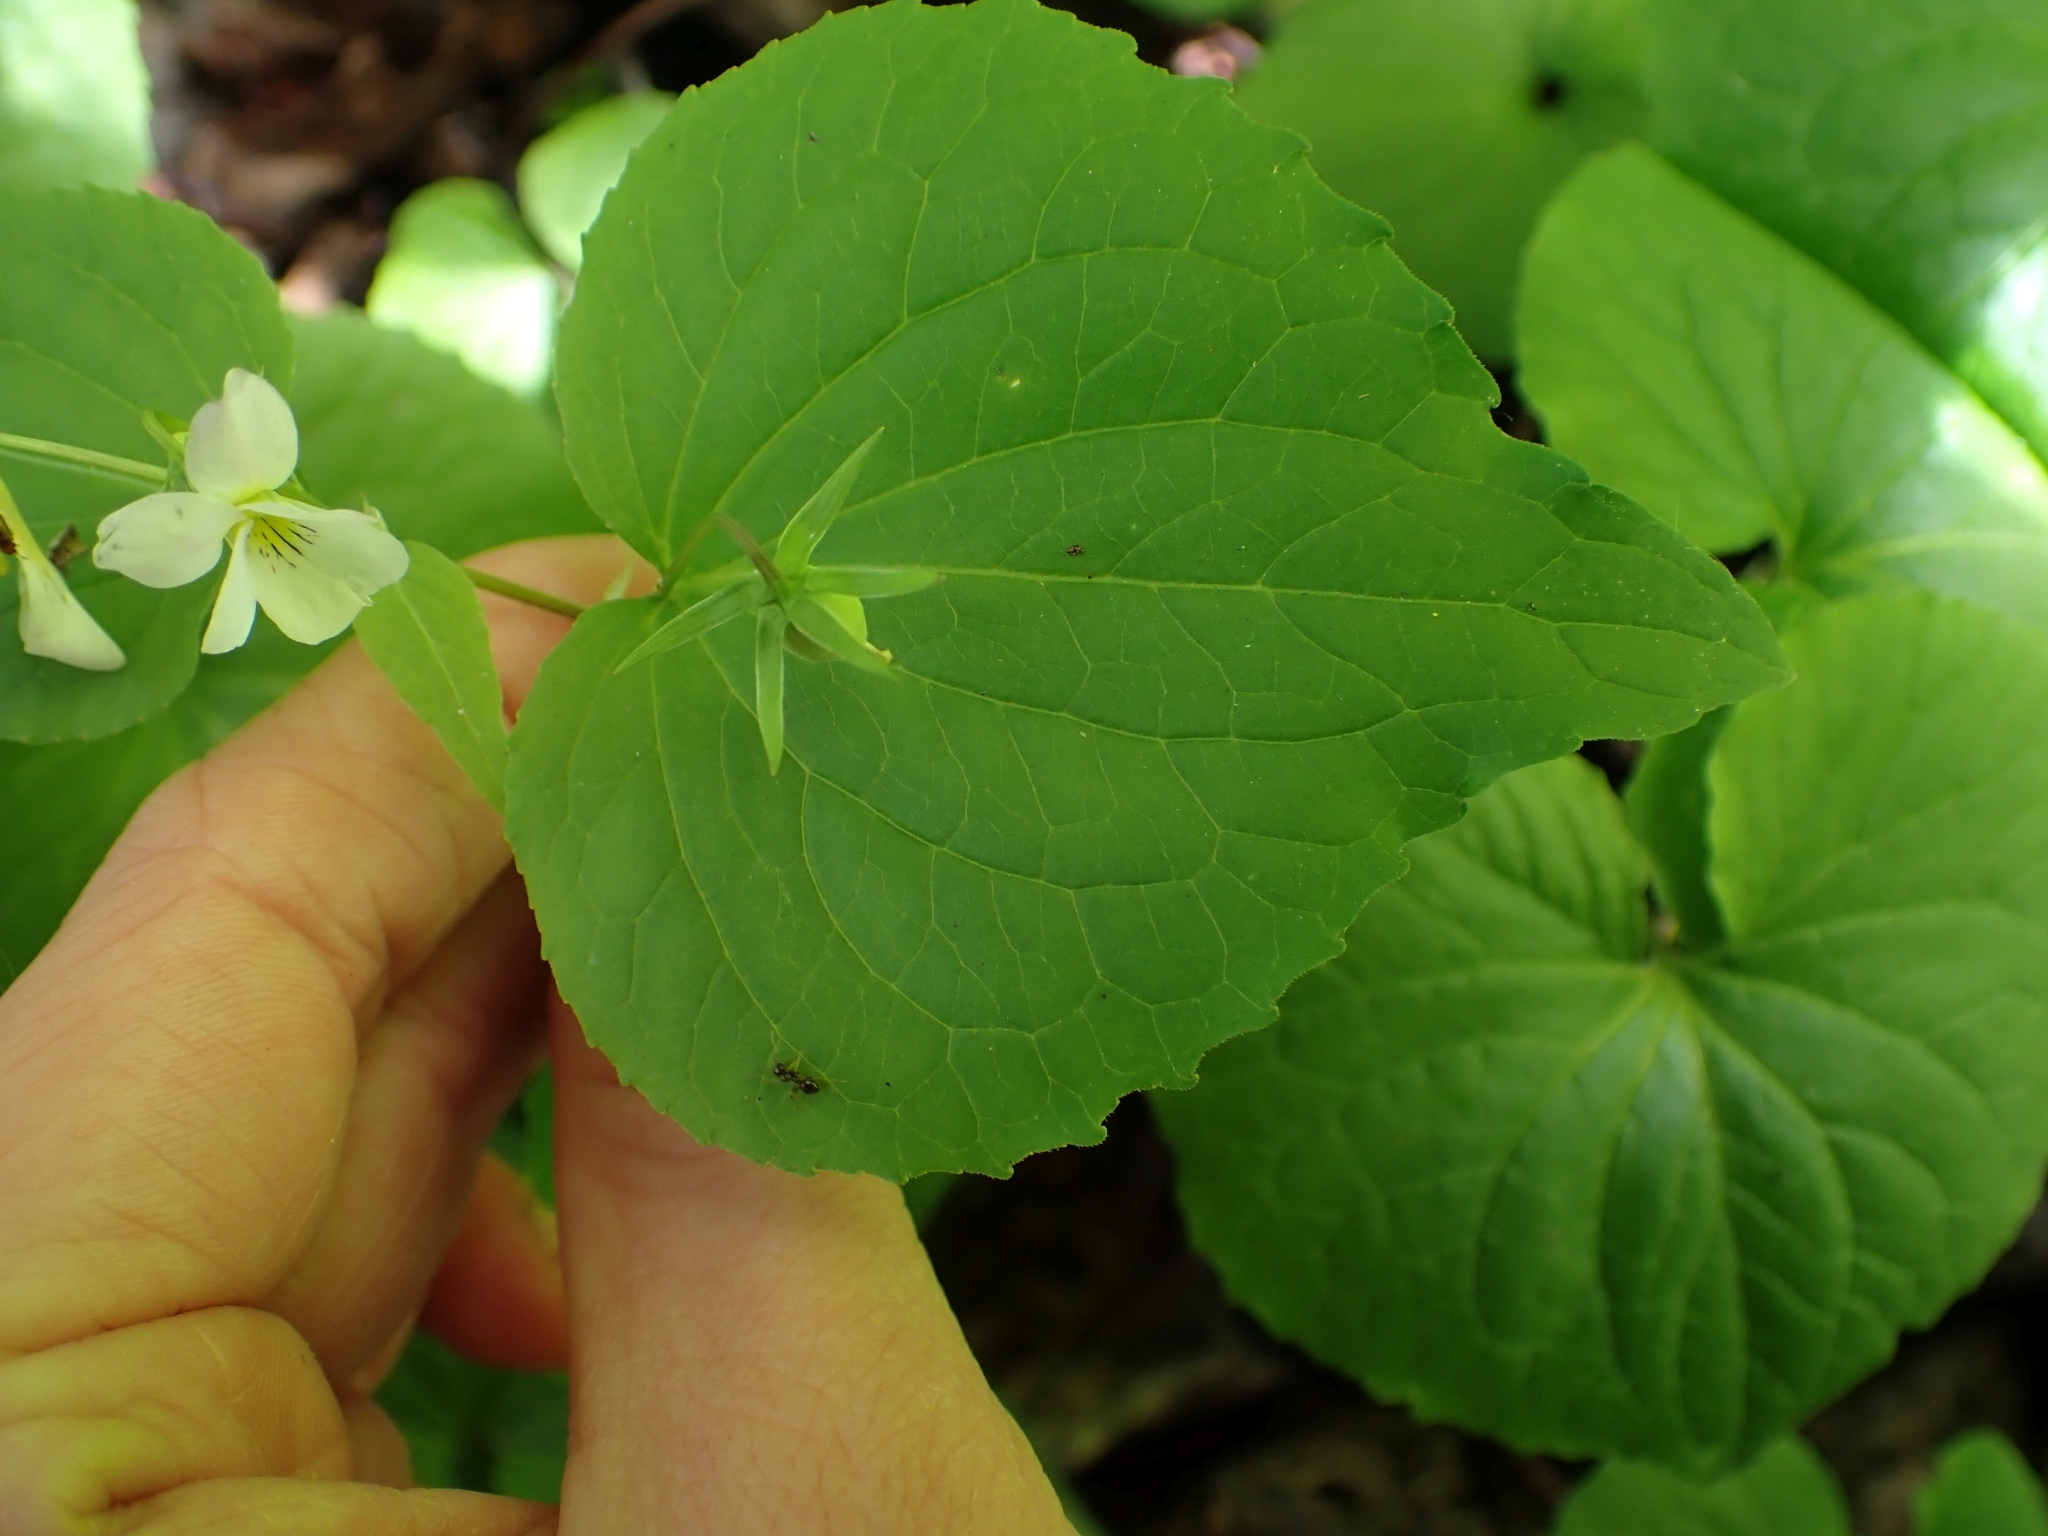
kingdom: Plantae
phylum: Tracheophyta
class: Magnoliopsida
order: Malpighiales
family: Violaceae
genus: Viola
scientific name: Viola canadensis
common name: Canada violet
